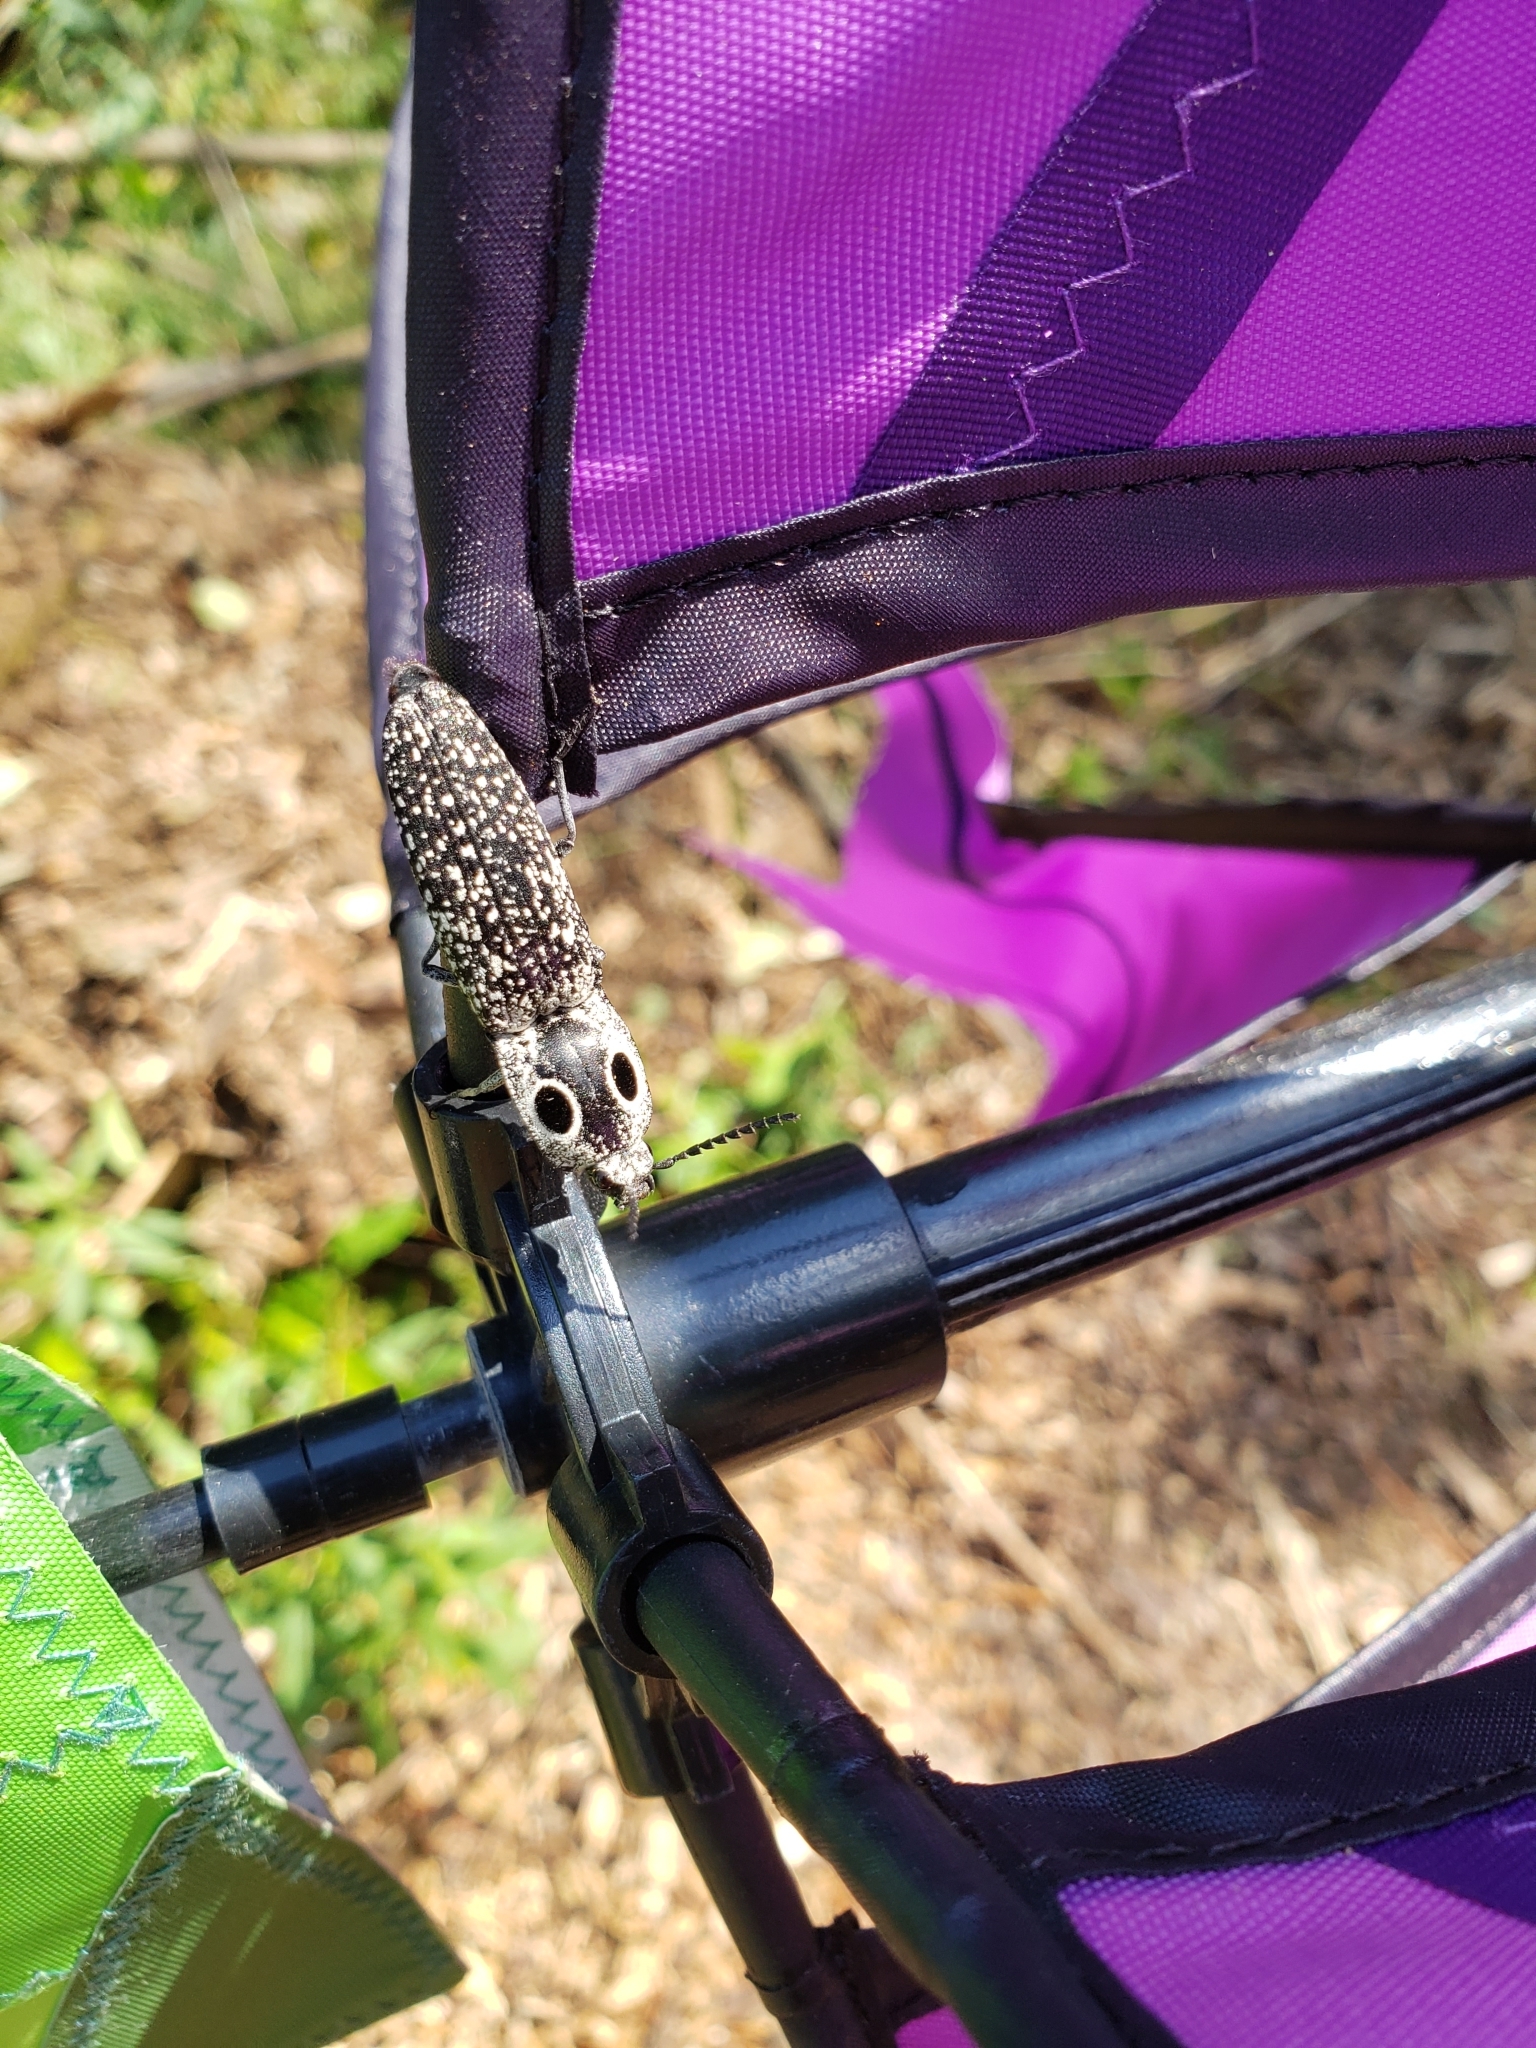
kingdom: Animalia
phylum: Arthropoda
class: Insecta
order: Coleoptera
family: Elateridae
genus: Alaus
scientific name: Alaus oculatus
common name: Eastern eyed click beetle
